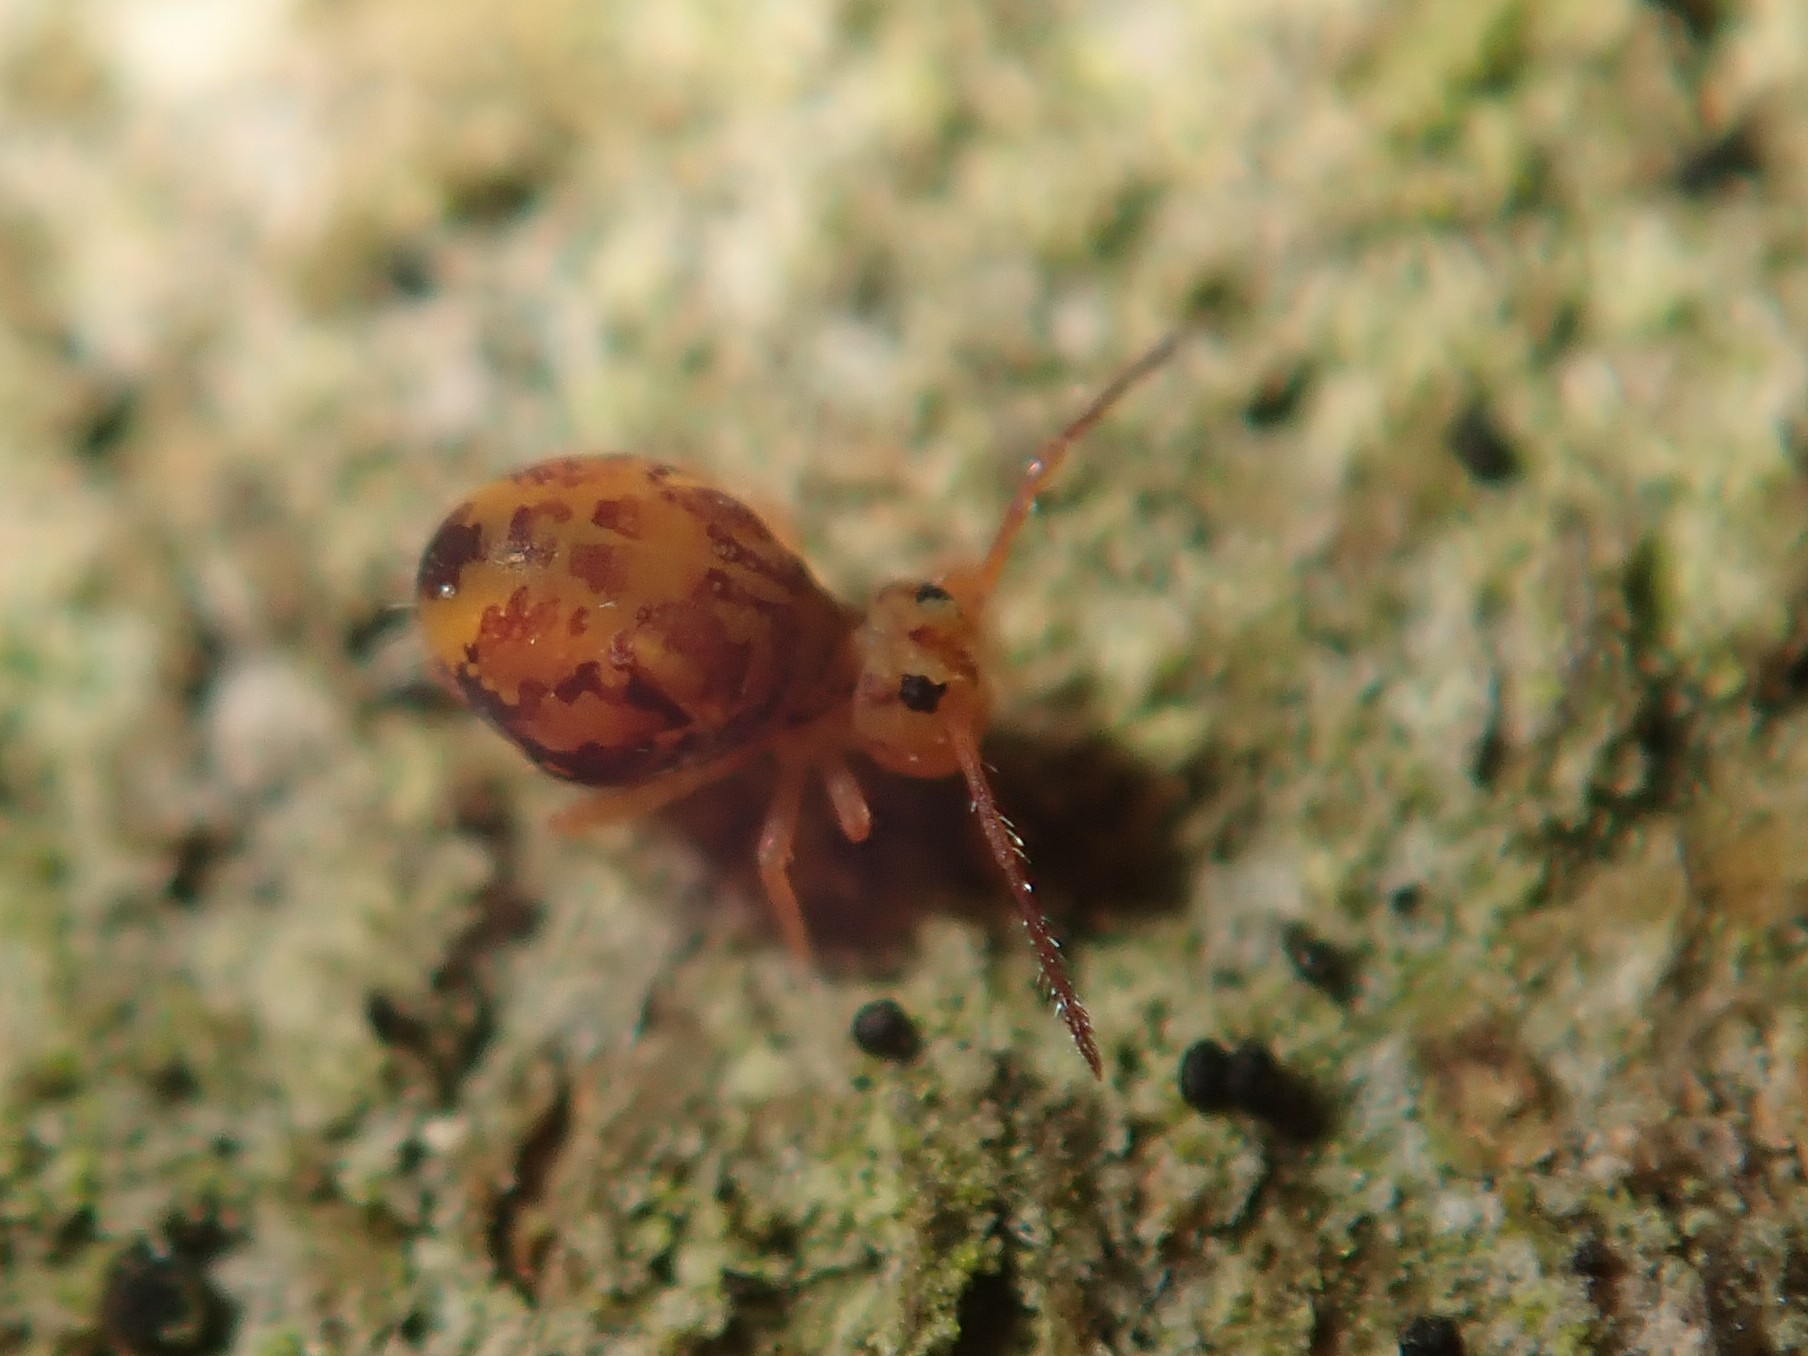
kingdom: Animalia
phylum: Arthropoda
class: Collembola
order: Symphypleona
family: Dicyrtomidae
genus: Dicyrtomina
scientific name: Dicyrtomina ornata
